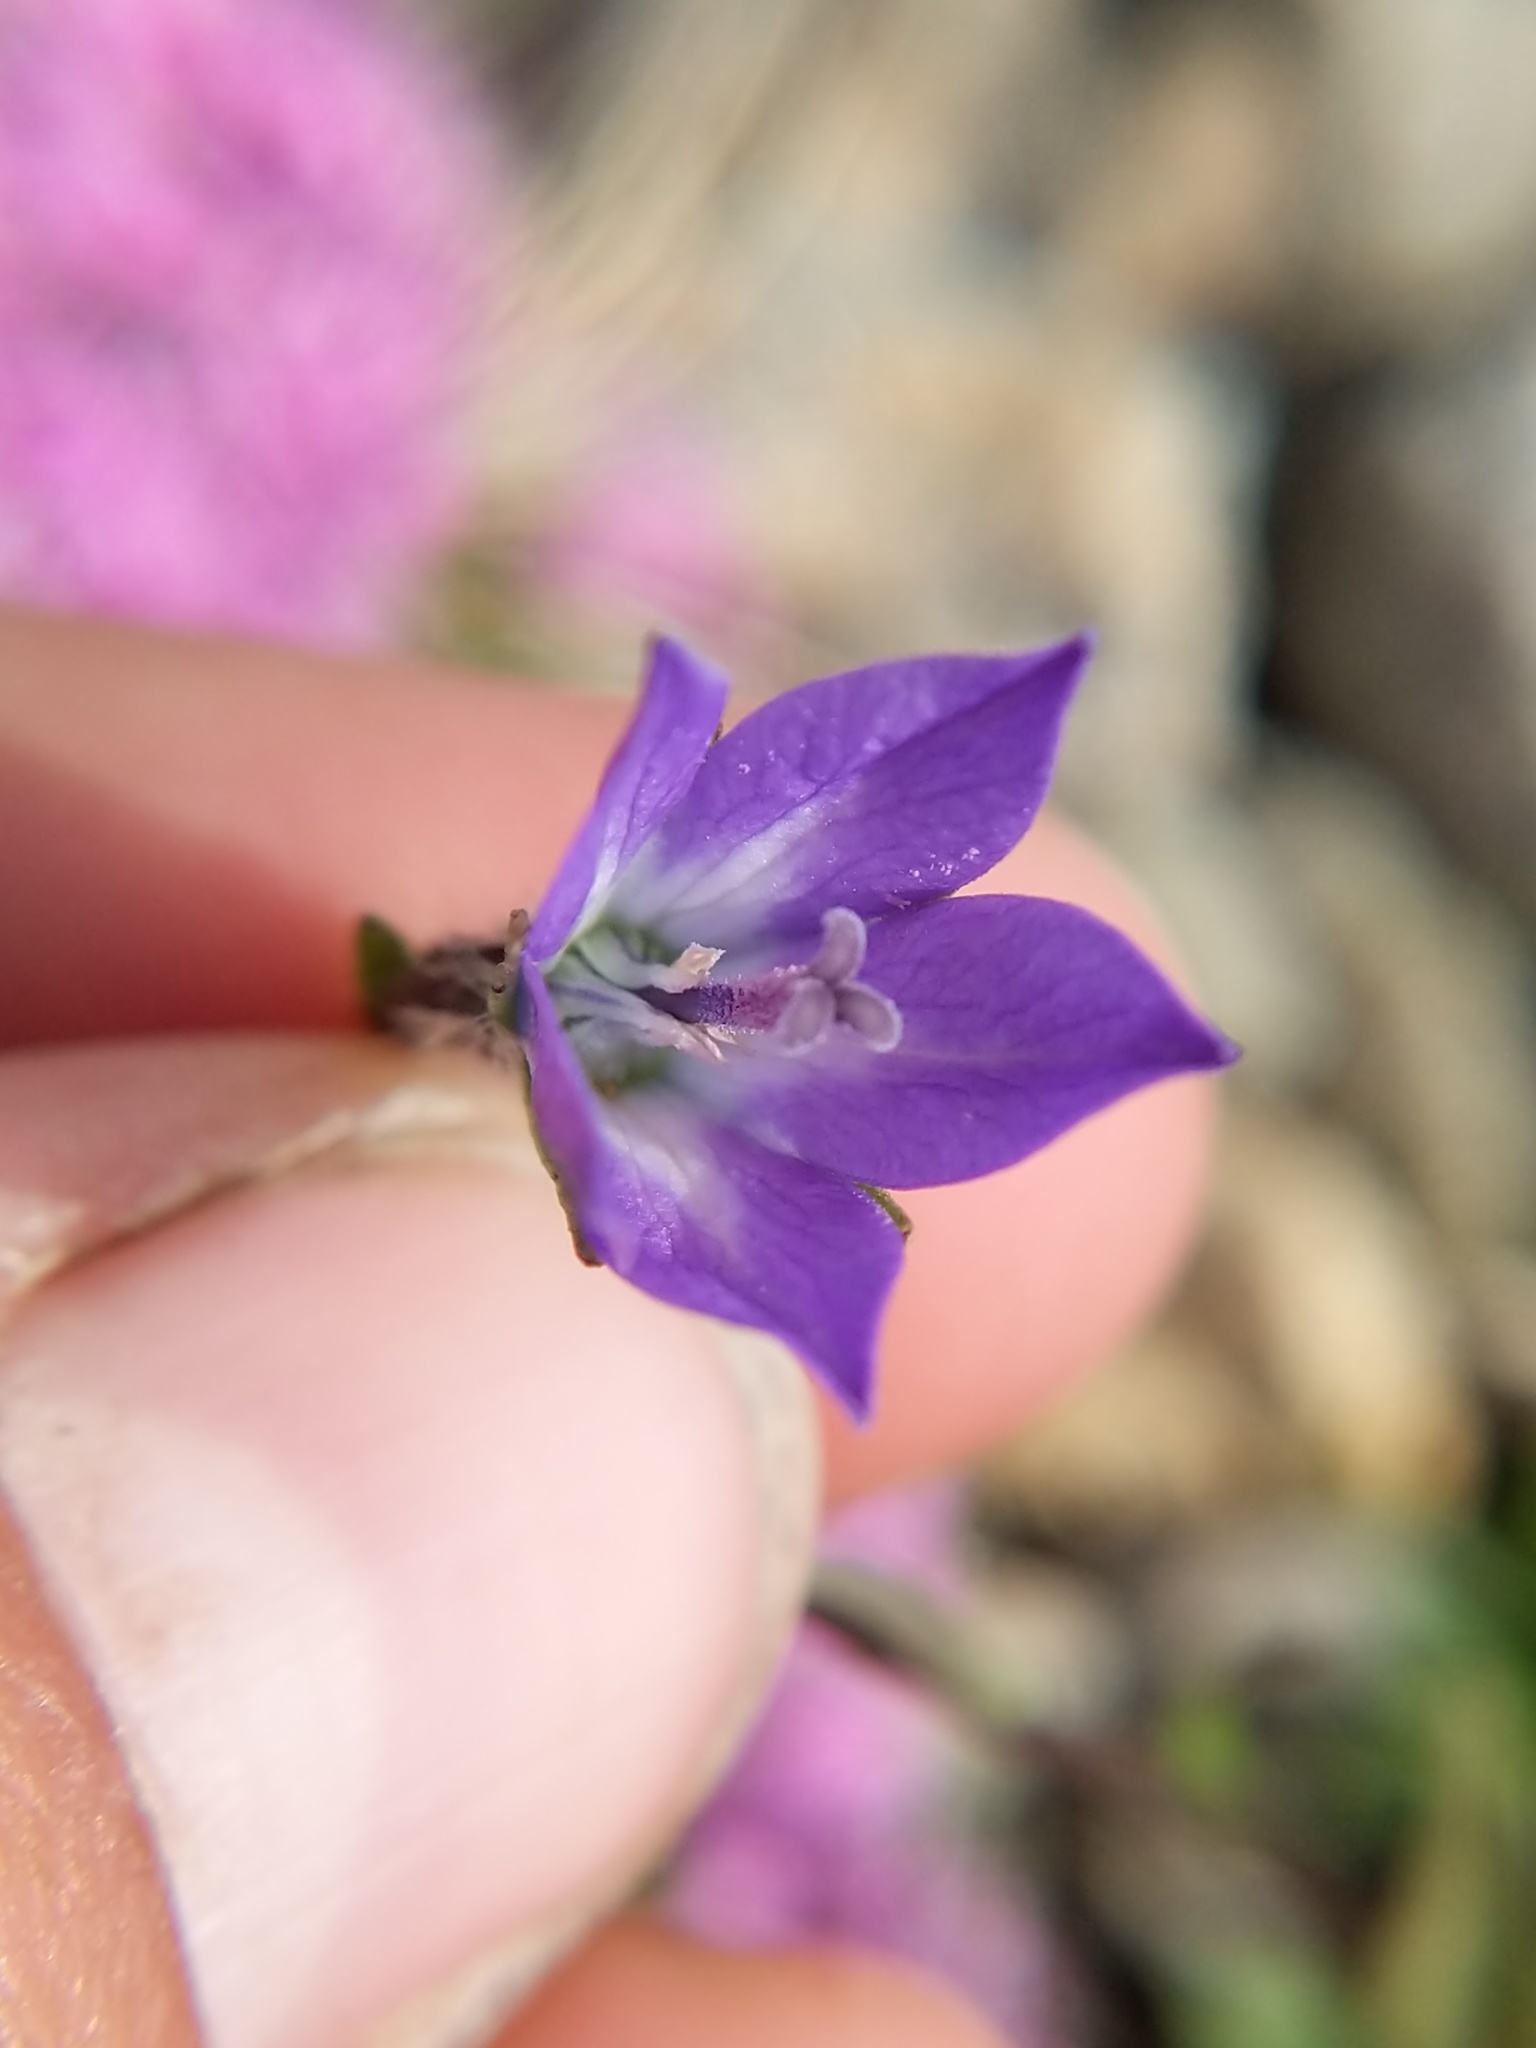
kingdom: Plantae
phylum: Tracheophyta
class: Magnoliopsida
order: Asterales
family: Campanulaceae
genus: Campanula
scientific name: Campanula uniflora
